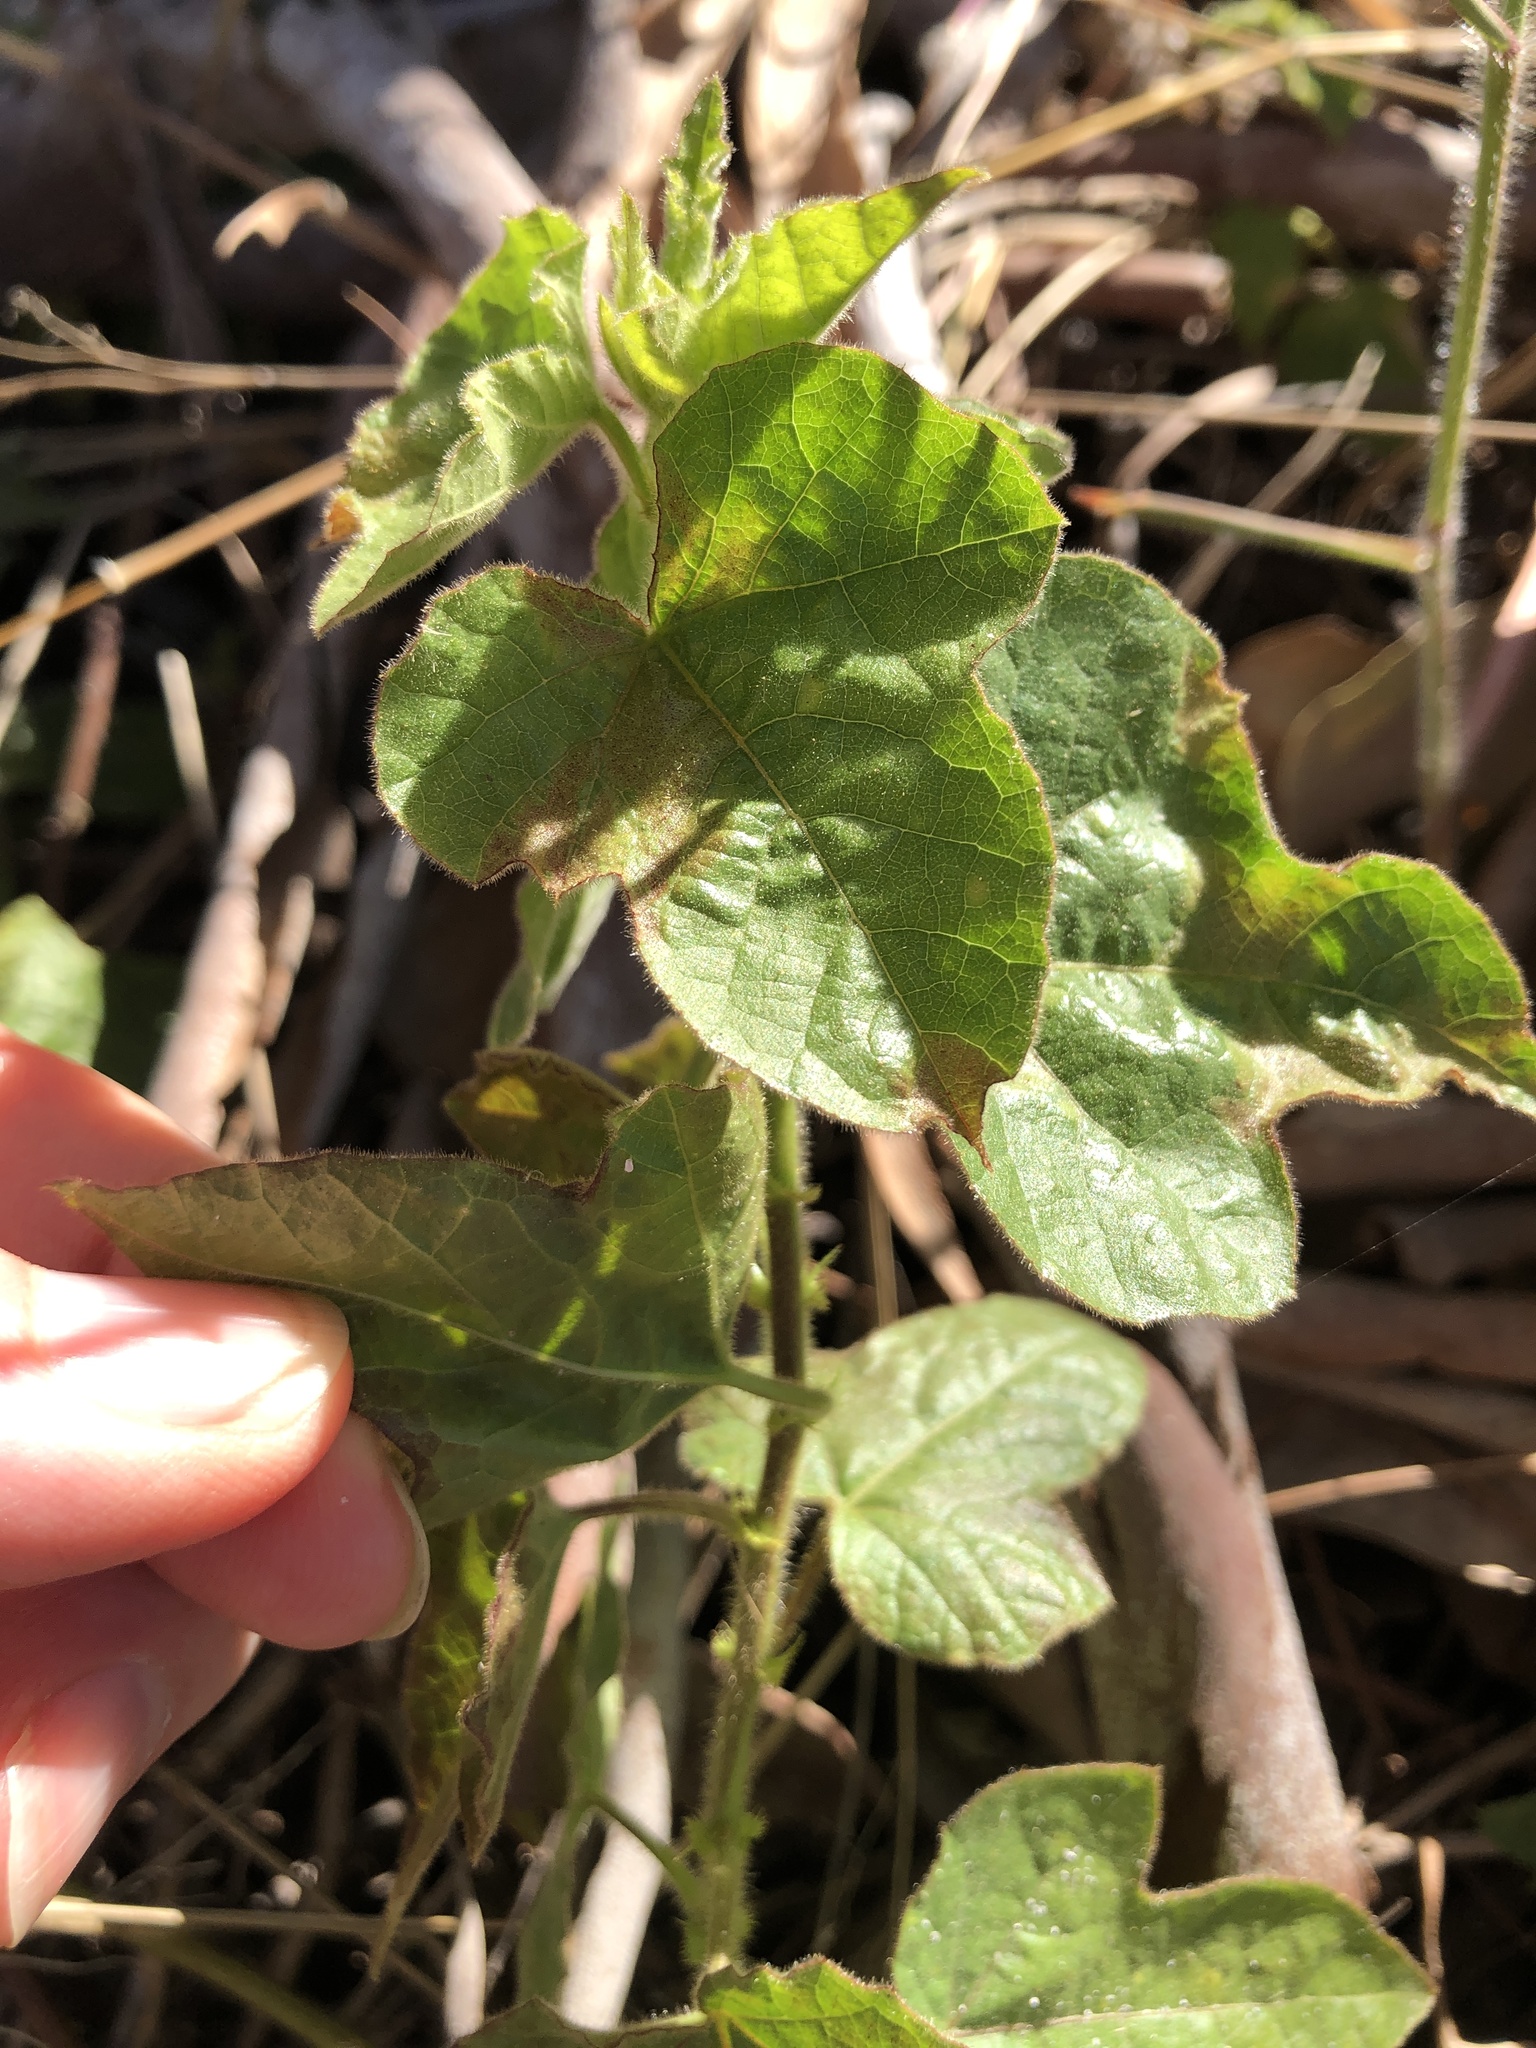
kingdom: Plantae
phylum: Tracheophyta
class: Magnoliopsida
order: Malpighiales
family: Passifloraceae
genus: Passiflora
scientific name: Passiflora foetida
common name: Fetid passionflower
